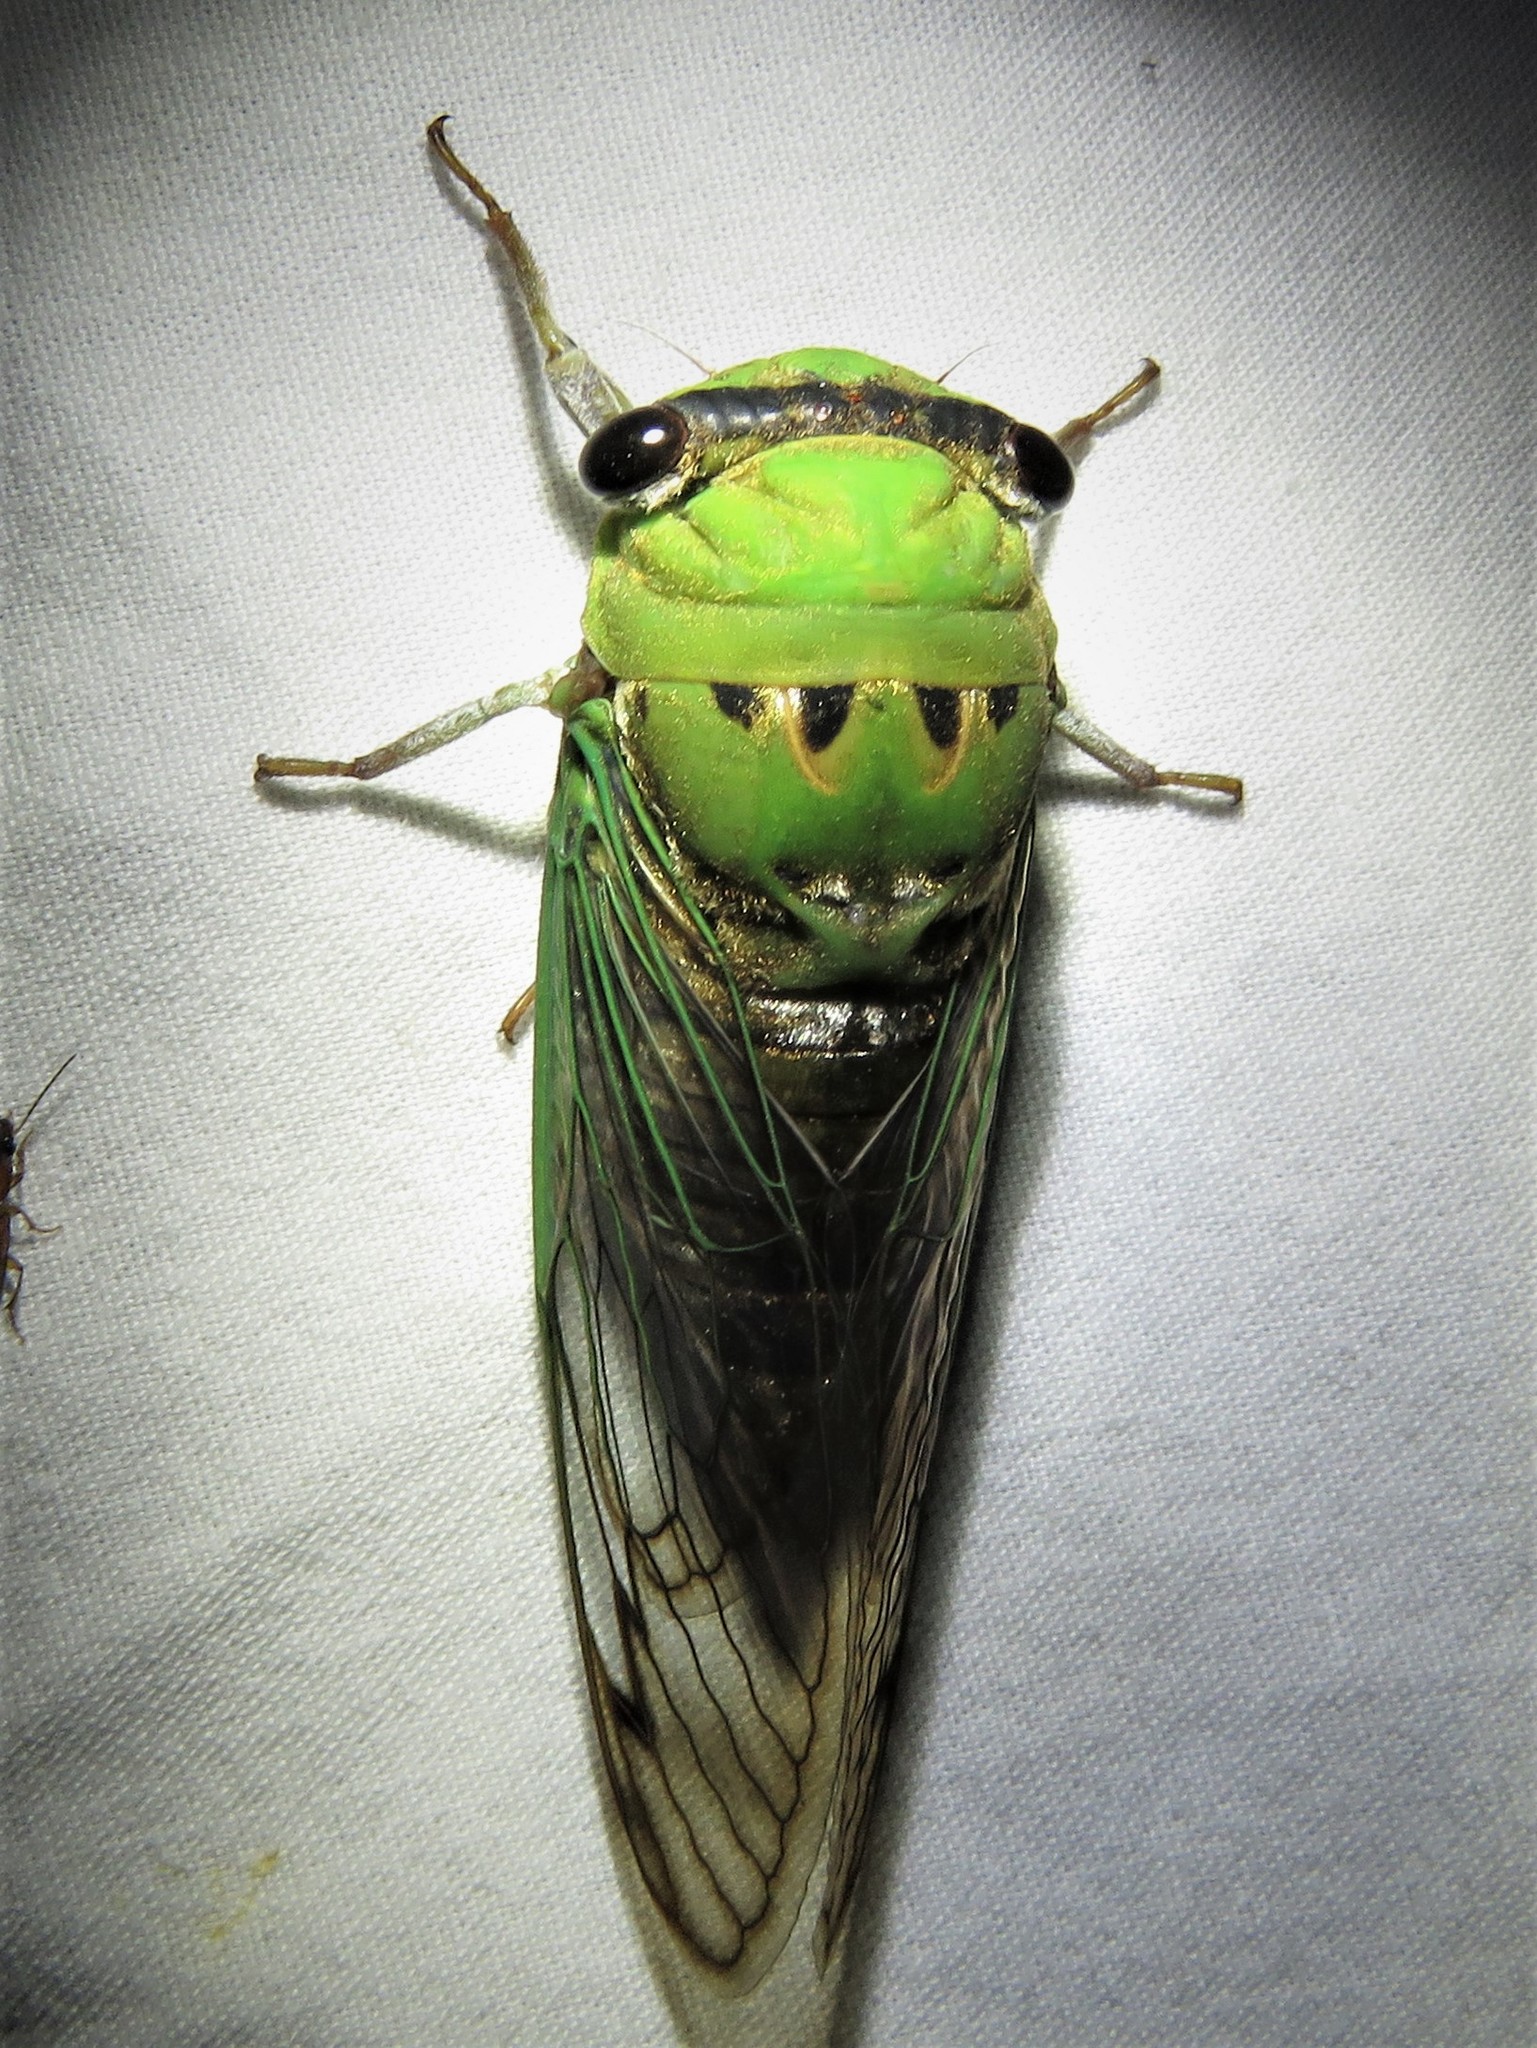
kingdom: Animalia
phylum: Arthropoda
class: Insecta
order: Hemiptera
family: Cicadidae
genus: Neotibicen
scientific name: Neotibicen superbus
